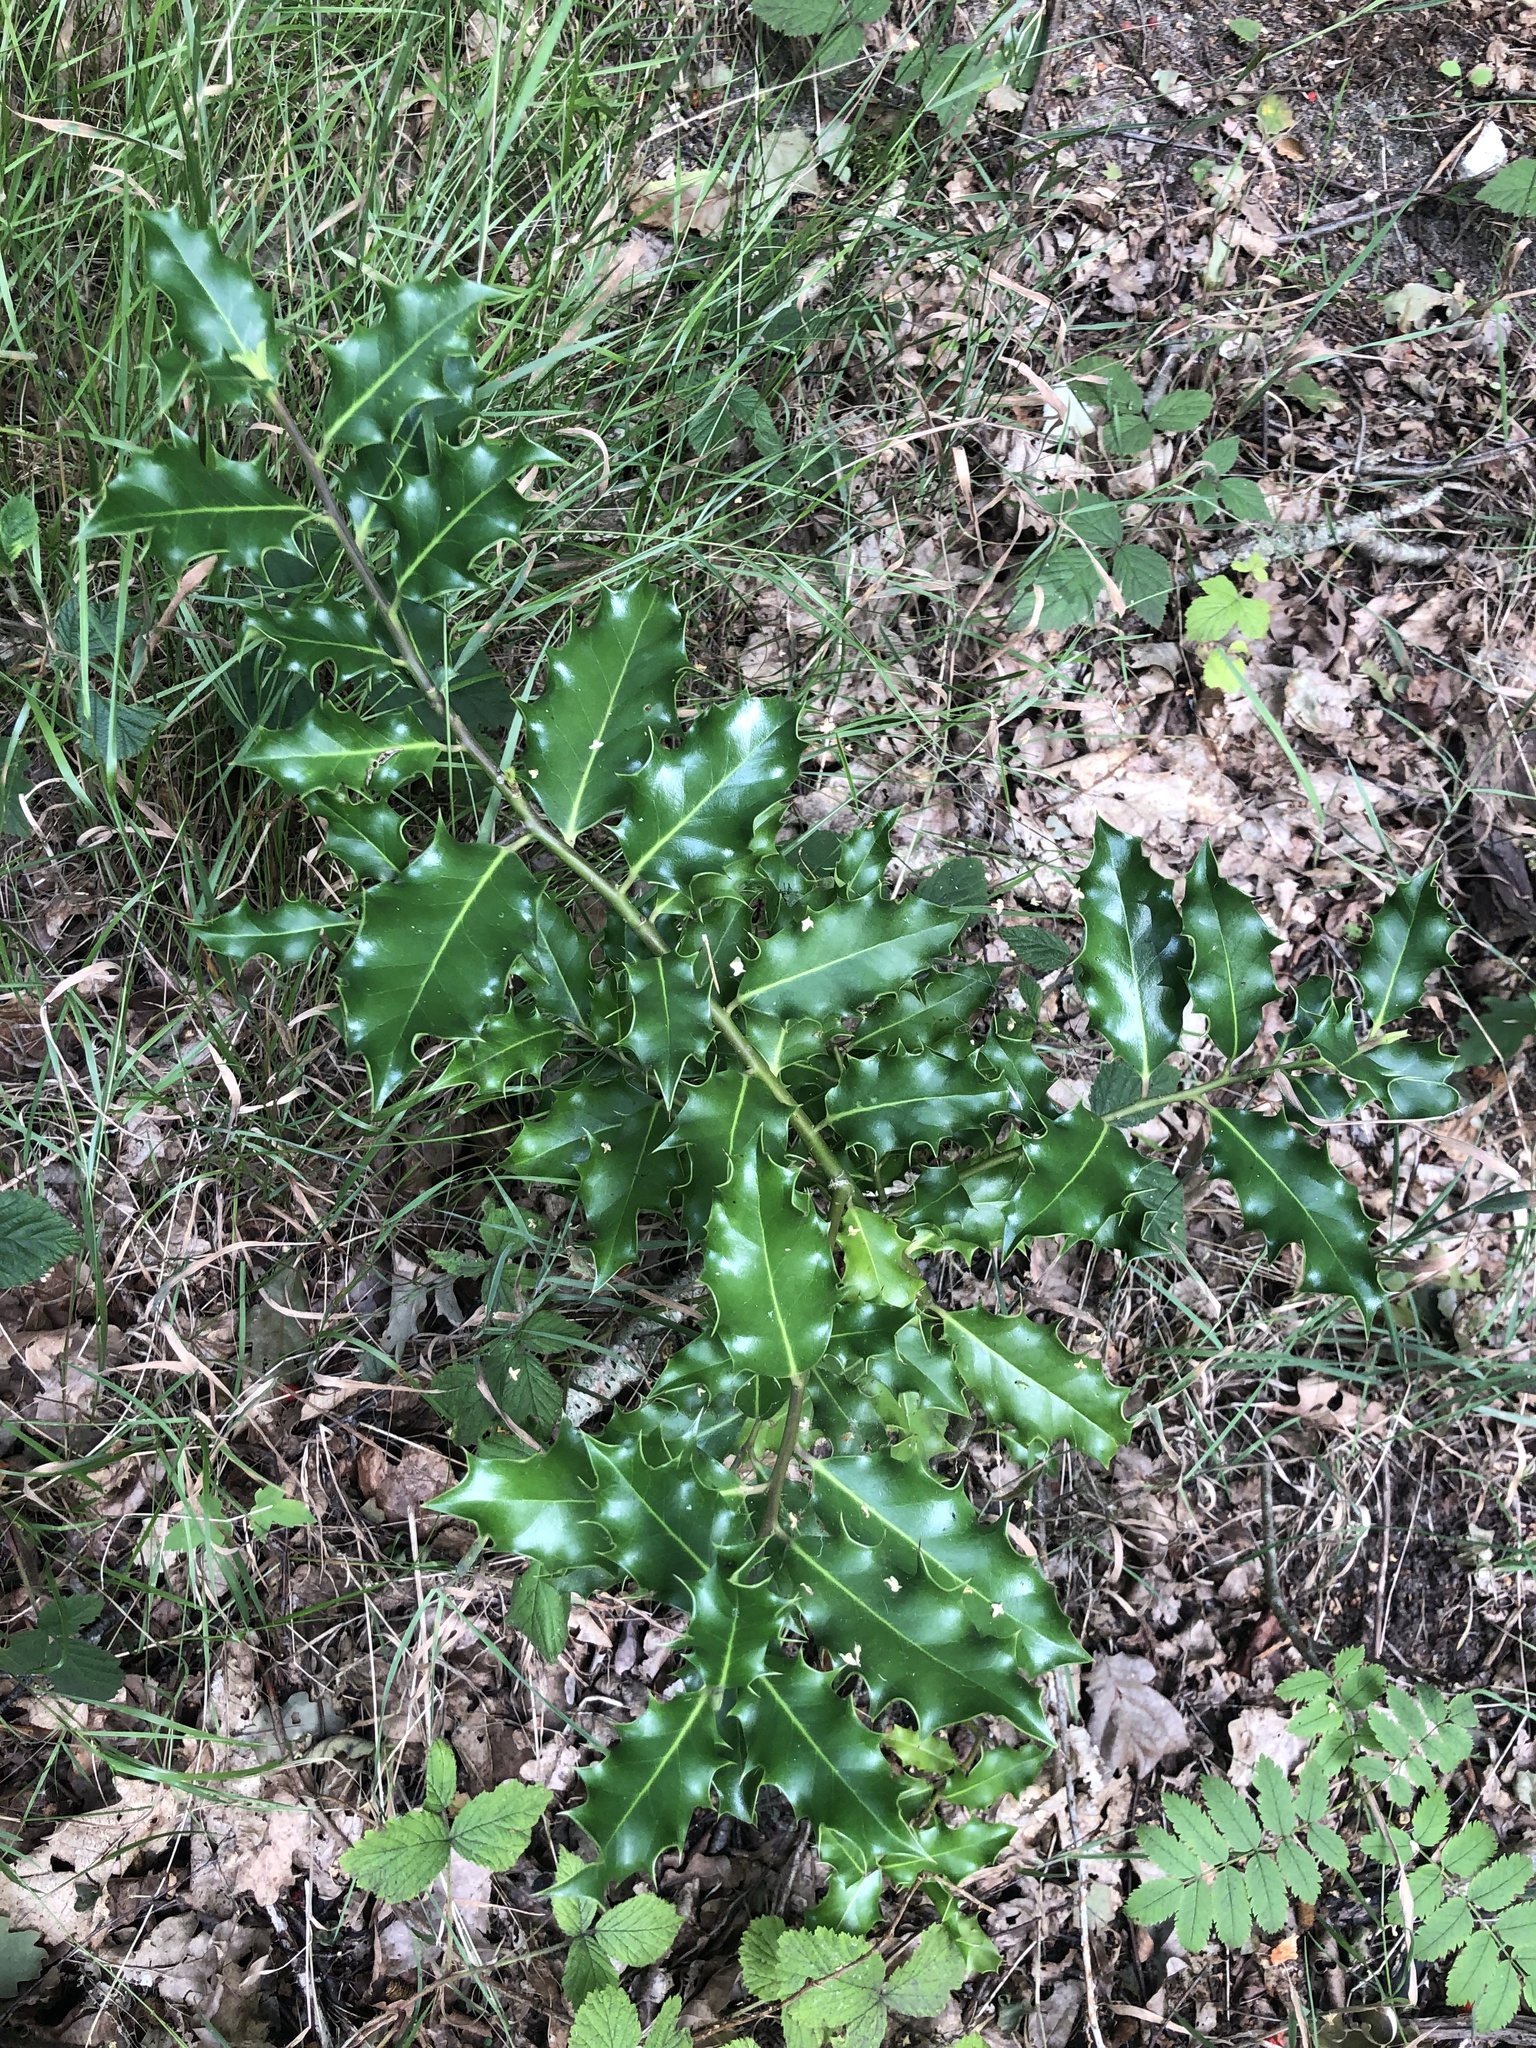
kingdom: Plantae
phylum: Tracheophyta
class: Magnoliopsida
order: Aquifoliales
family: Aquifoliaceae
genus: Ilex
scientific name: Ilex aquifolium
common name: English holly
